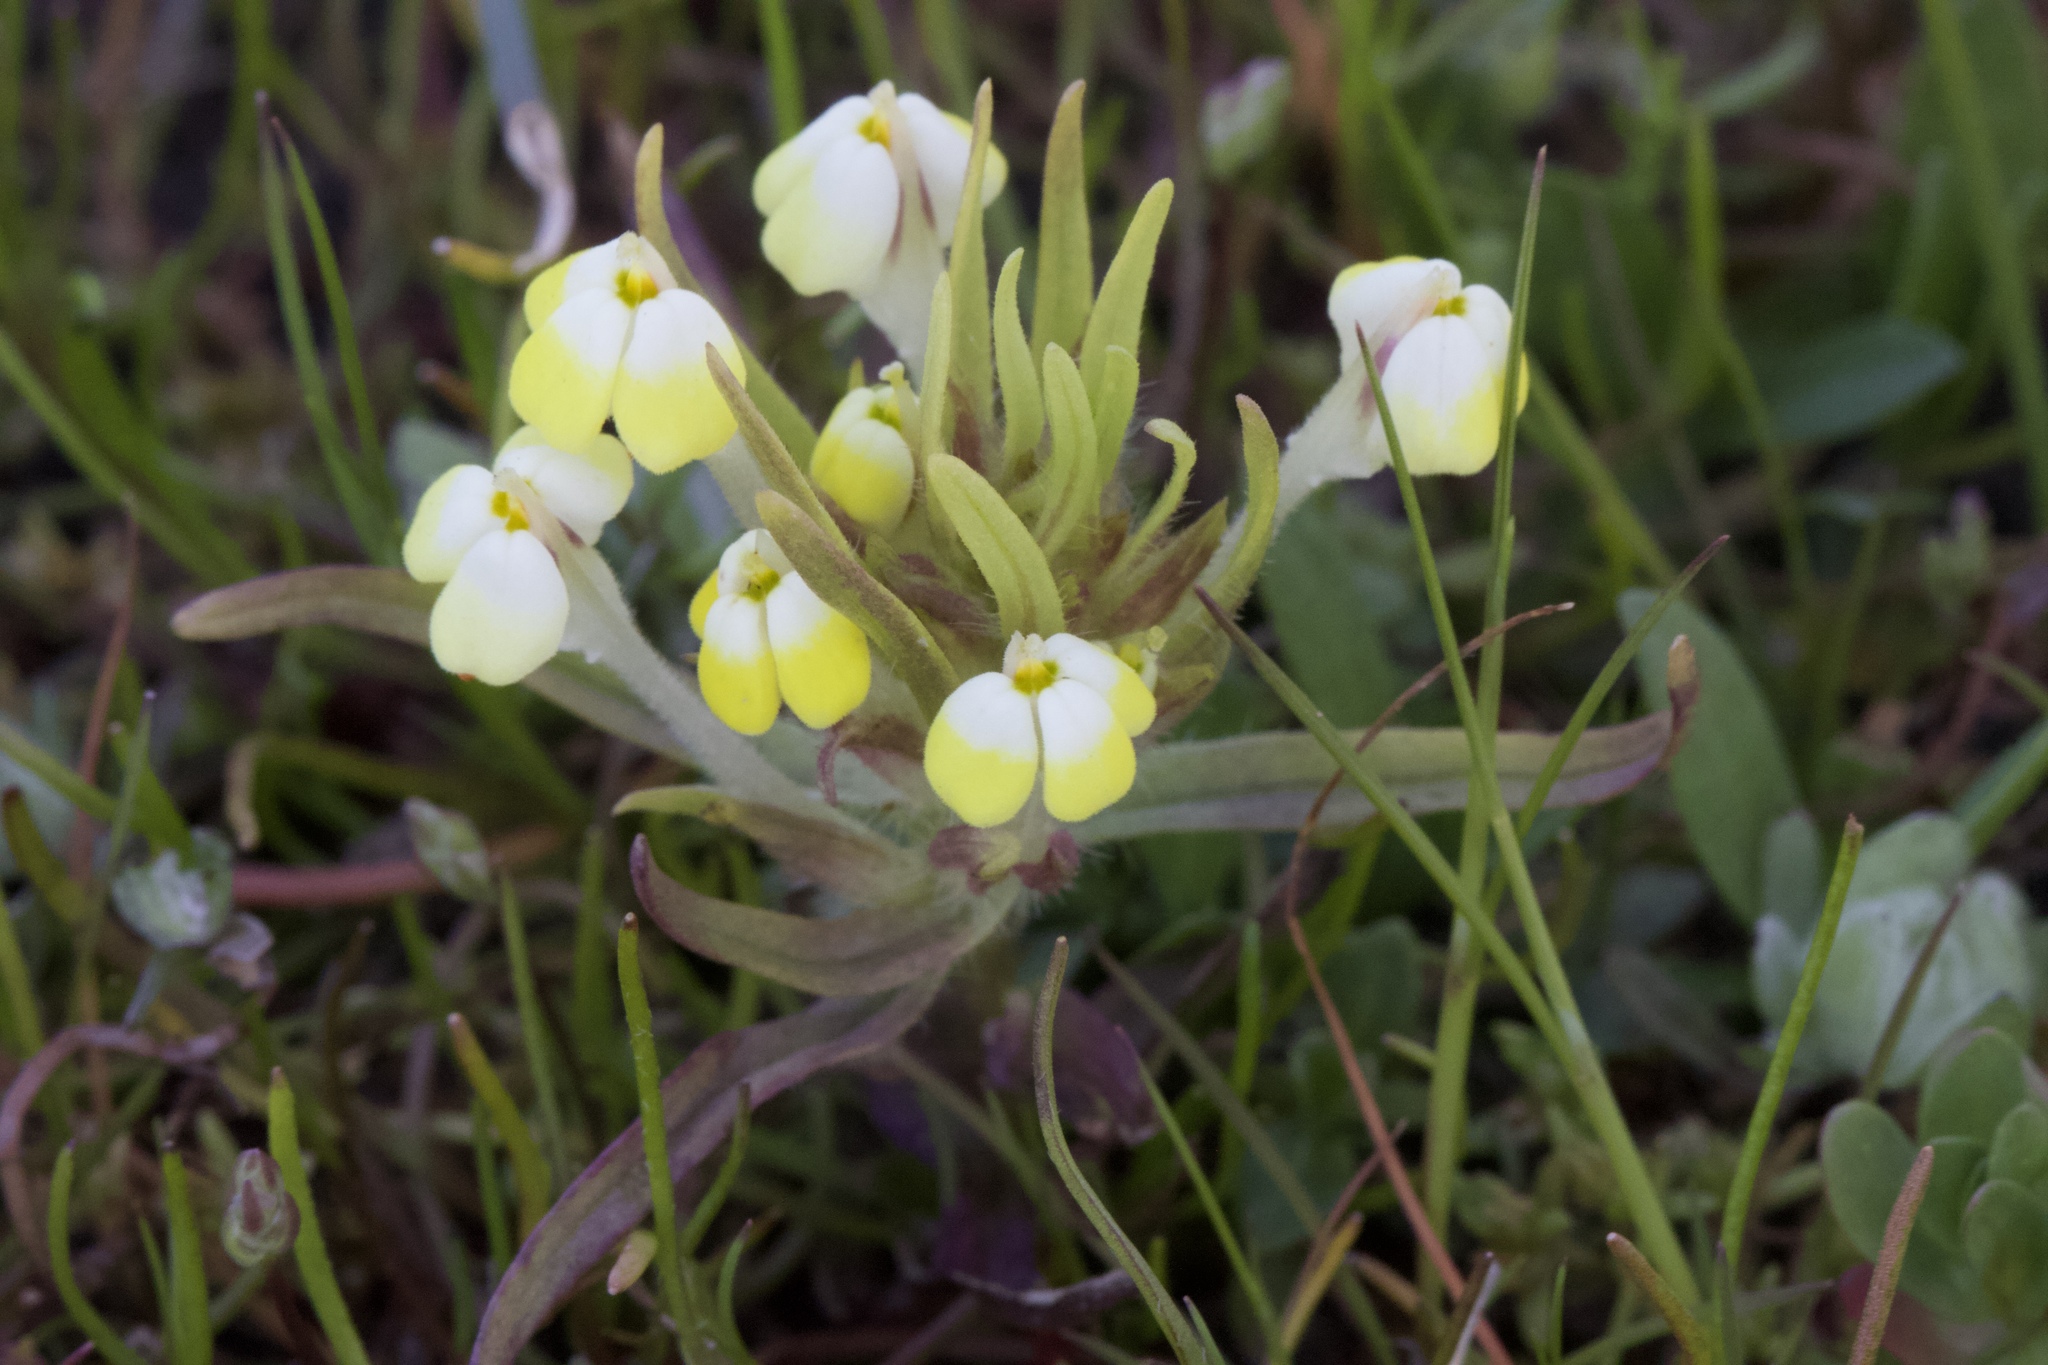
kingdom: Plantae
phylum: Tracheophyta
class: Magnoliopsida
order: Lamiales
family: Orobanchaceae
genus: Castilleja
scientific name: Castilleja campestris
